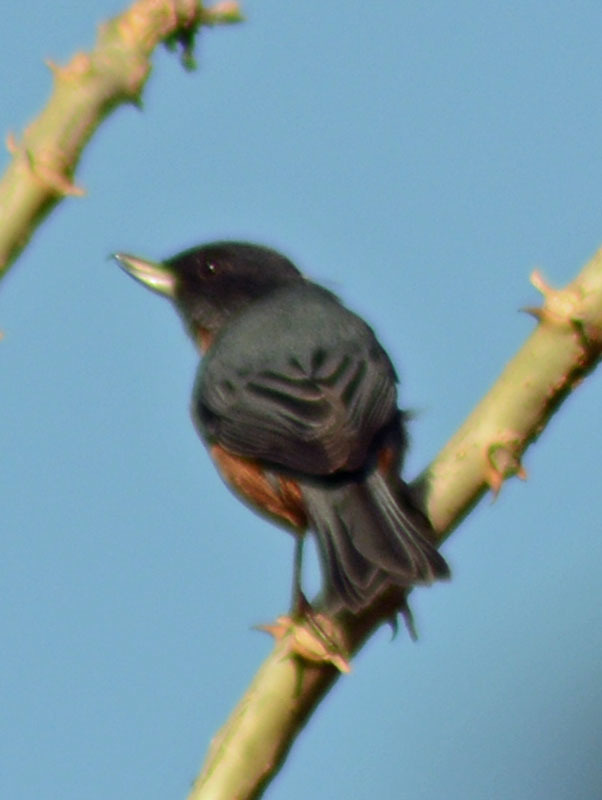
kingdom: Animalia
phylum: Chordata
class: Aves
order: Passeriformes
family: Thraupidae
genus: Diglossa
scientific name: Diglossa baritula
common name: Cinnamon-bellied flowerpiercer
